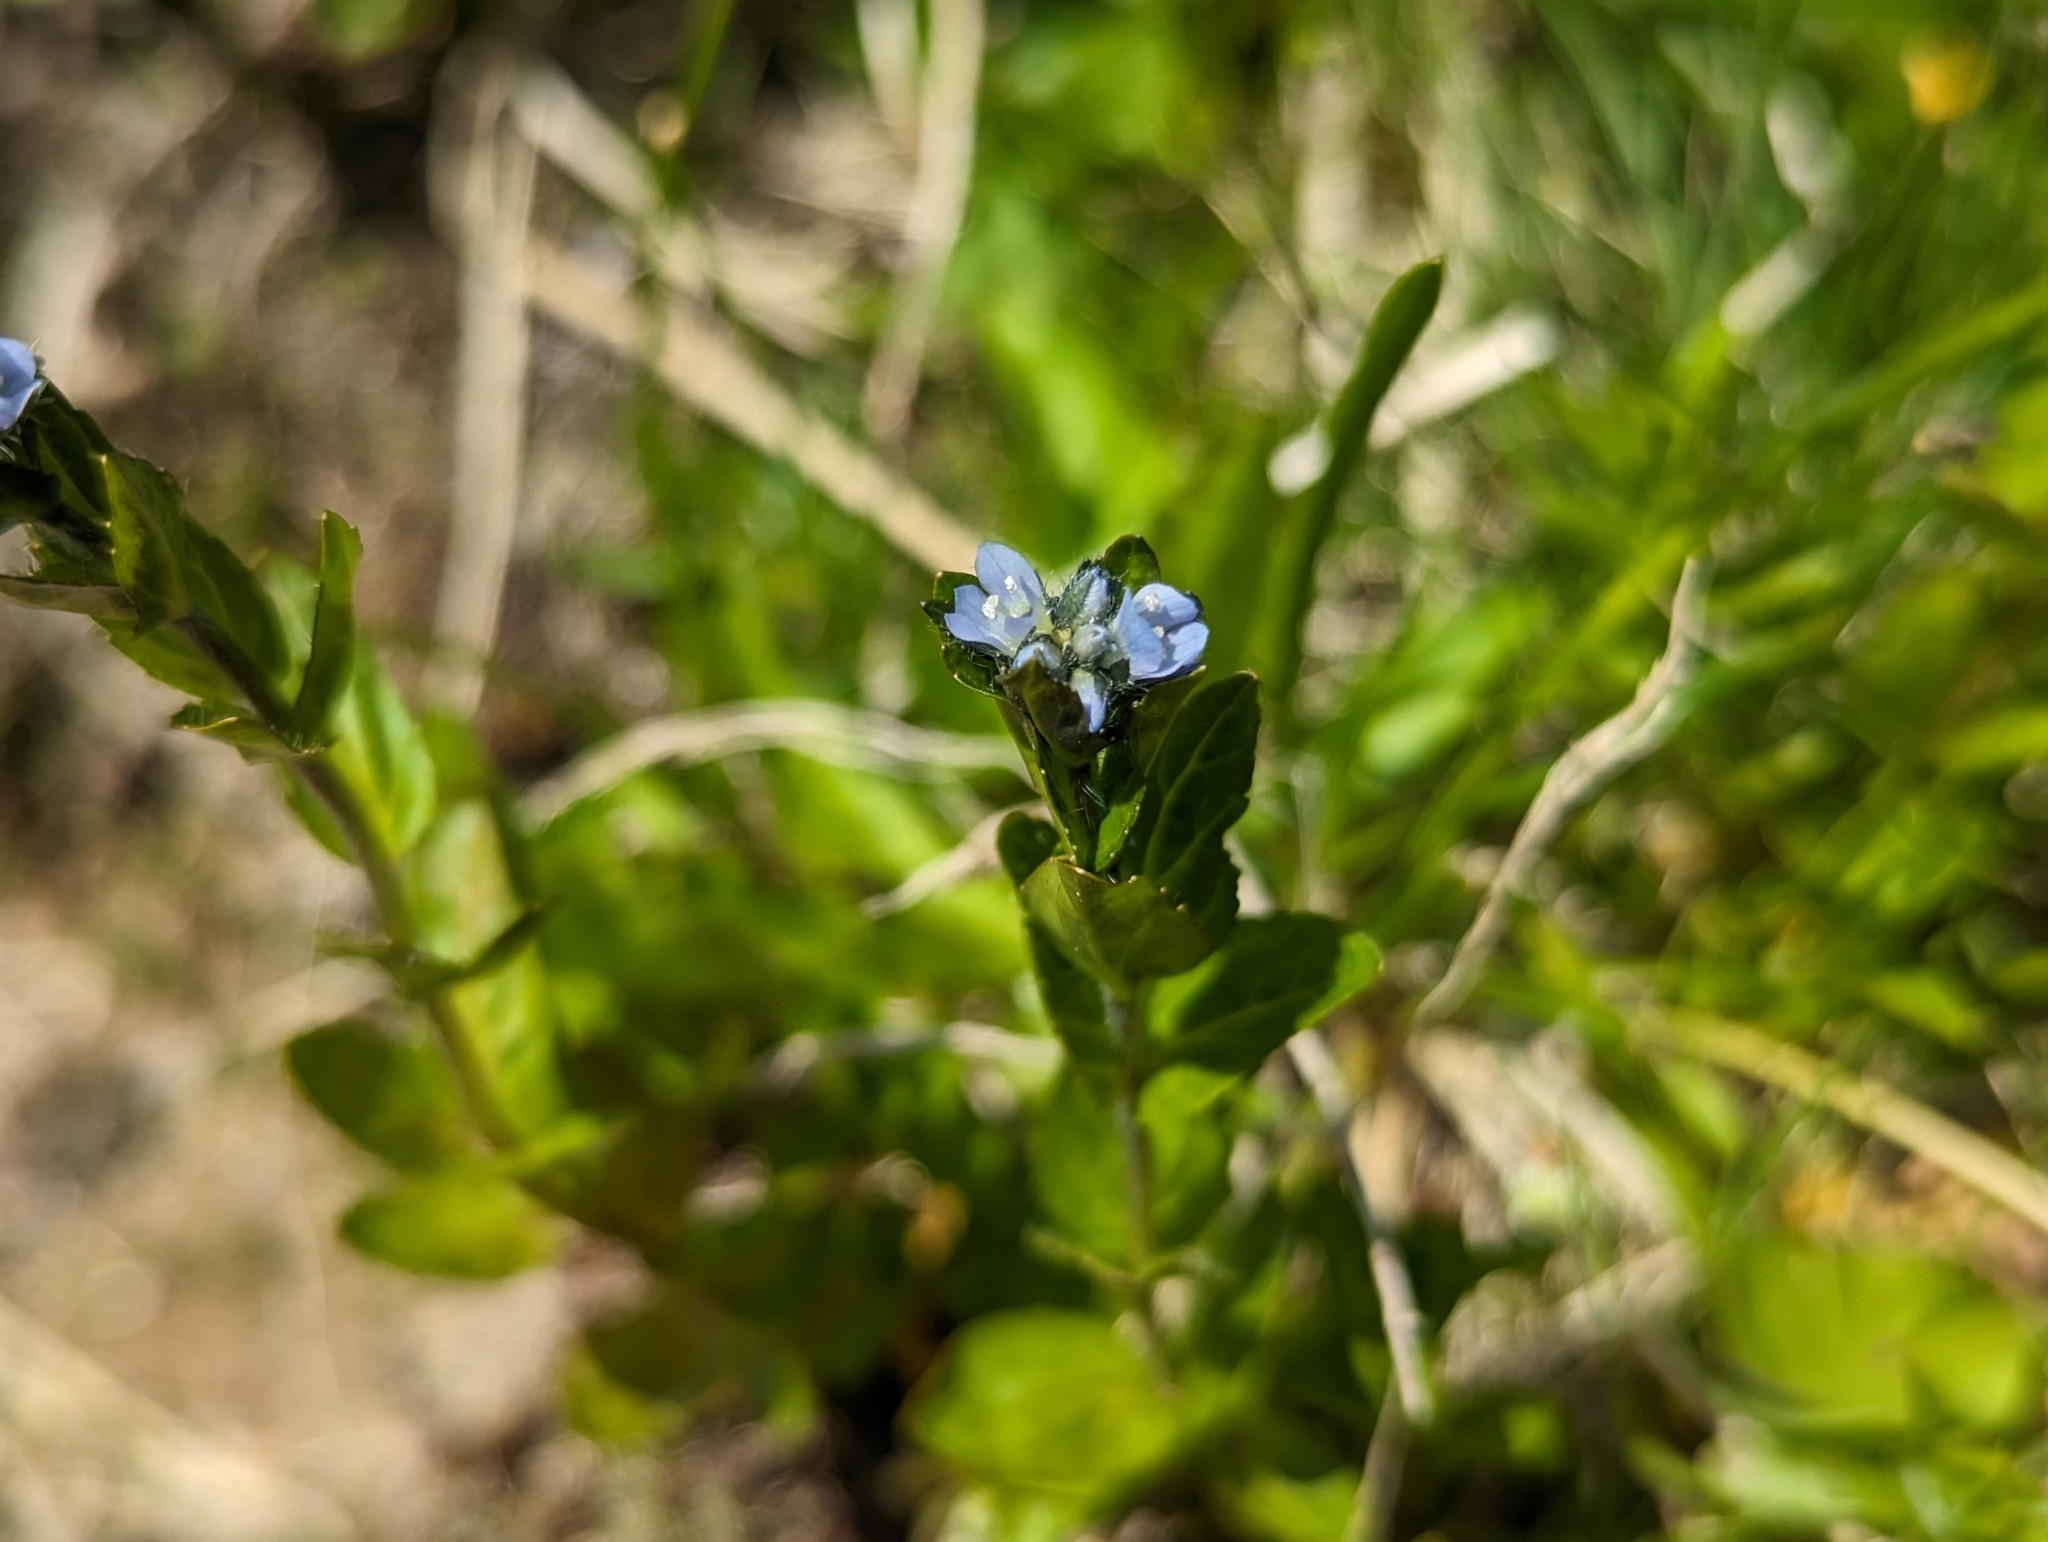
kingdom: Plantae
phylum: Tracheophyta
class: Magnoliopsida
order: Lamiales
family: Plantaginaceae
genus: Veronica
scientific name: Veronica alpina
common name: Alpine speedwell
